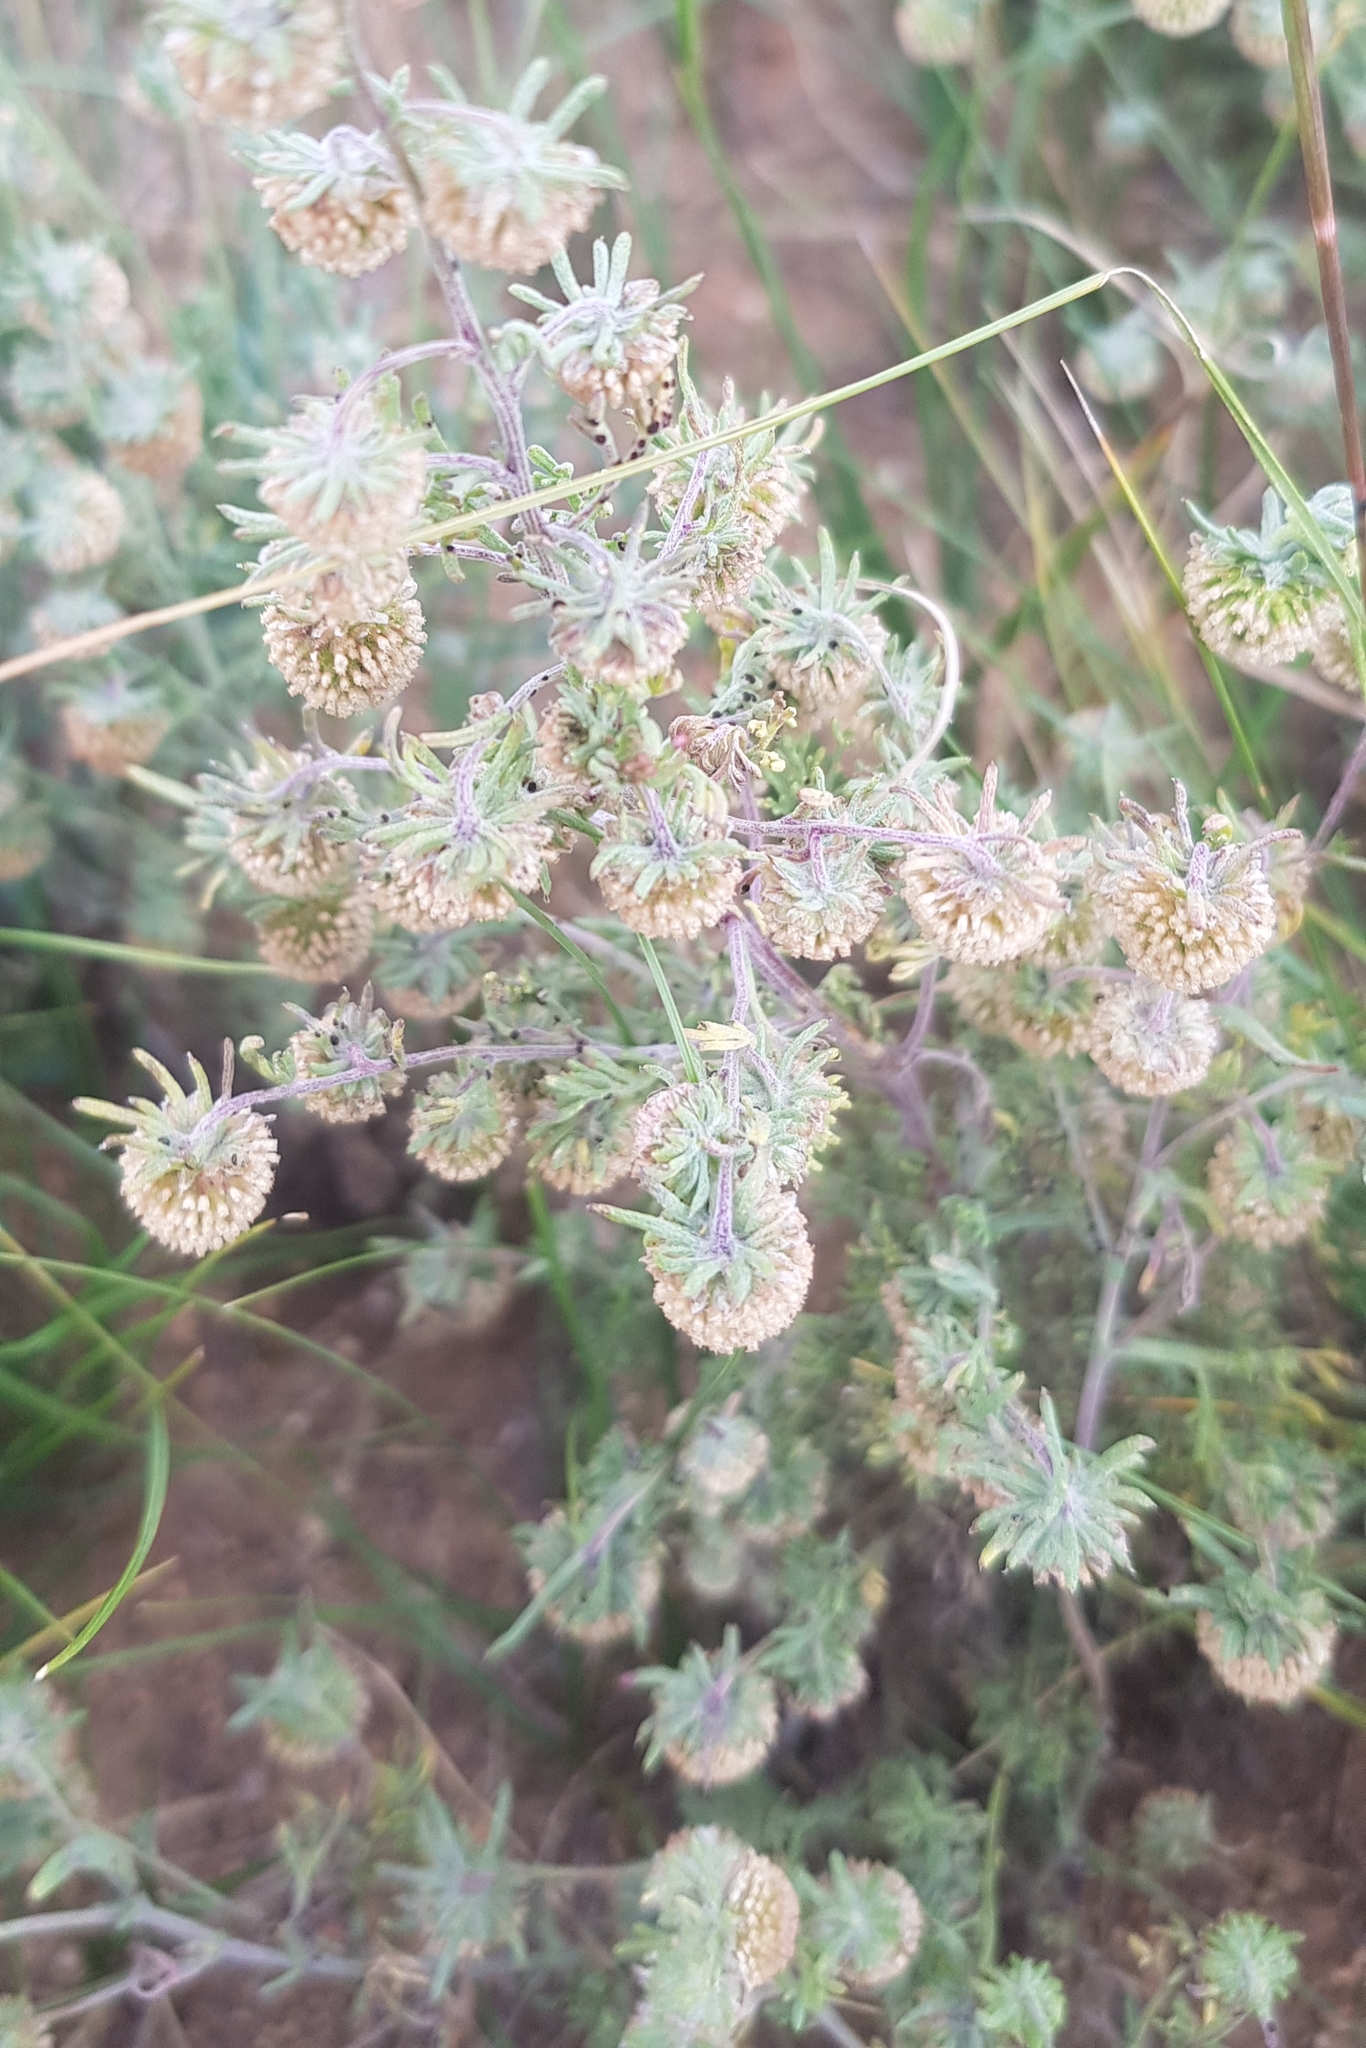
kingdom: Plantae
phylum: Tracheophyta
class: Magnoliopsida
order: Asterales
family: Asteraceae
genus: Artemisia
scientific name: Artemisia macrocephala
